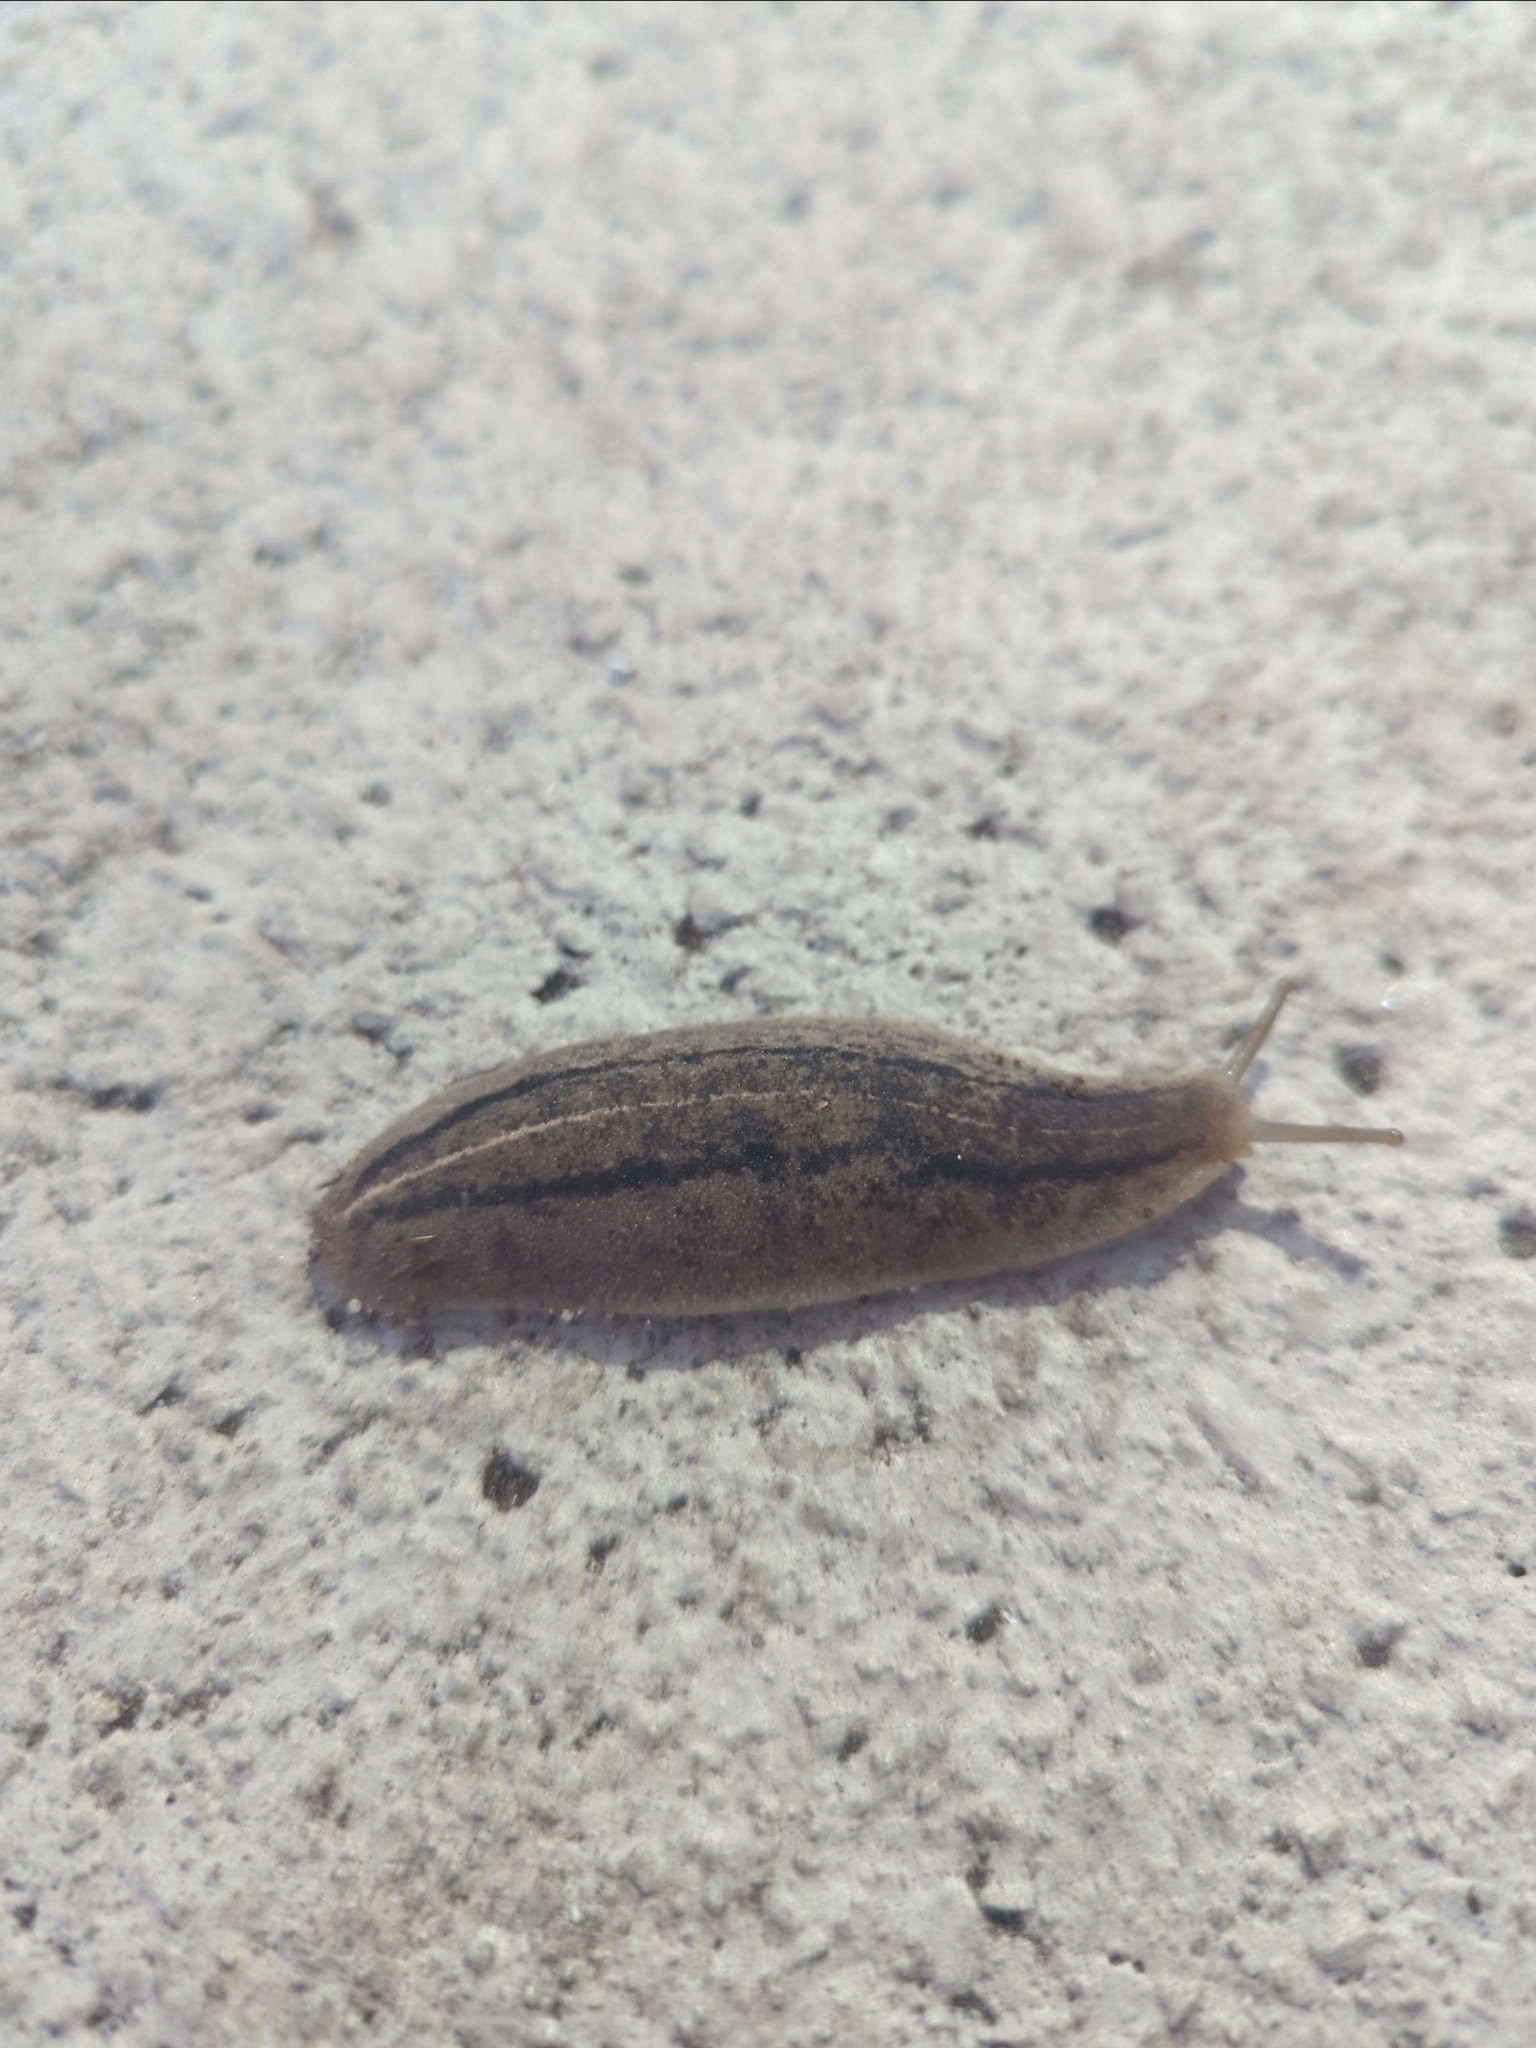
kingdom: Animalia
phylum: Mollusca
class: Gastropoda
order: Systellommatophora
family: Veronicellidae
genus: Leidyula
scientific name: Leidyula floridana
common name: Florida leatherleaf
